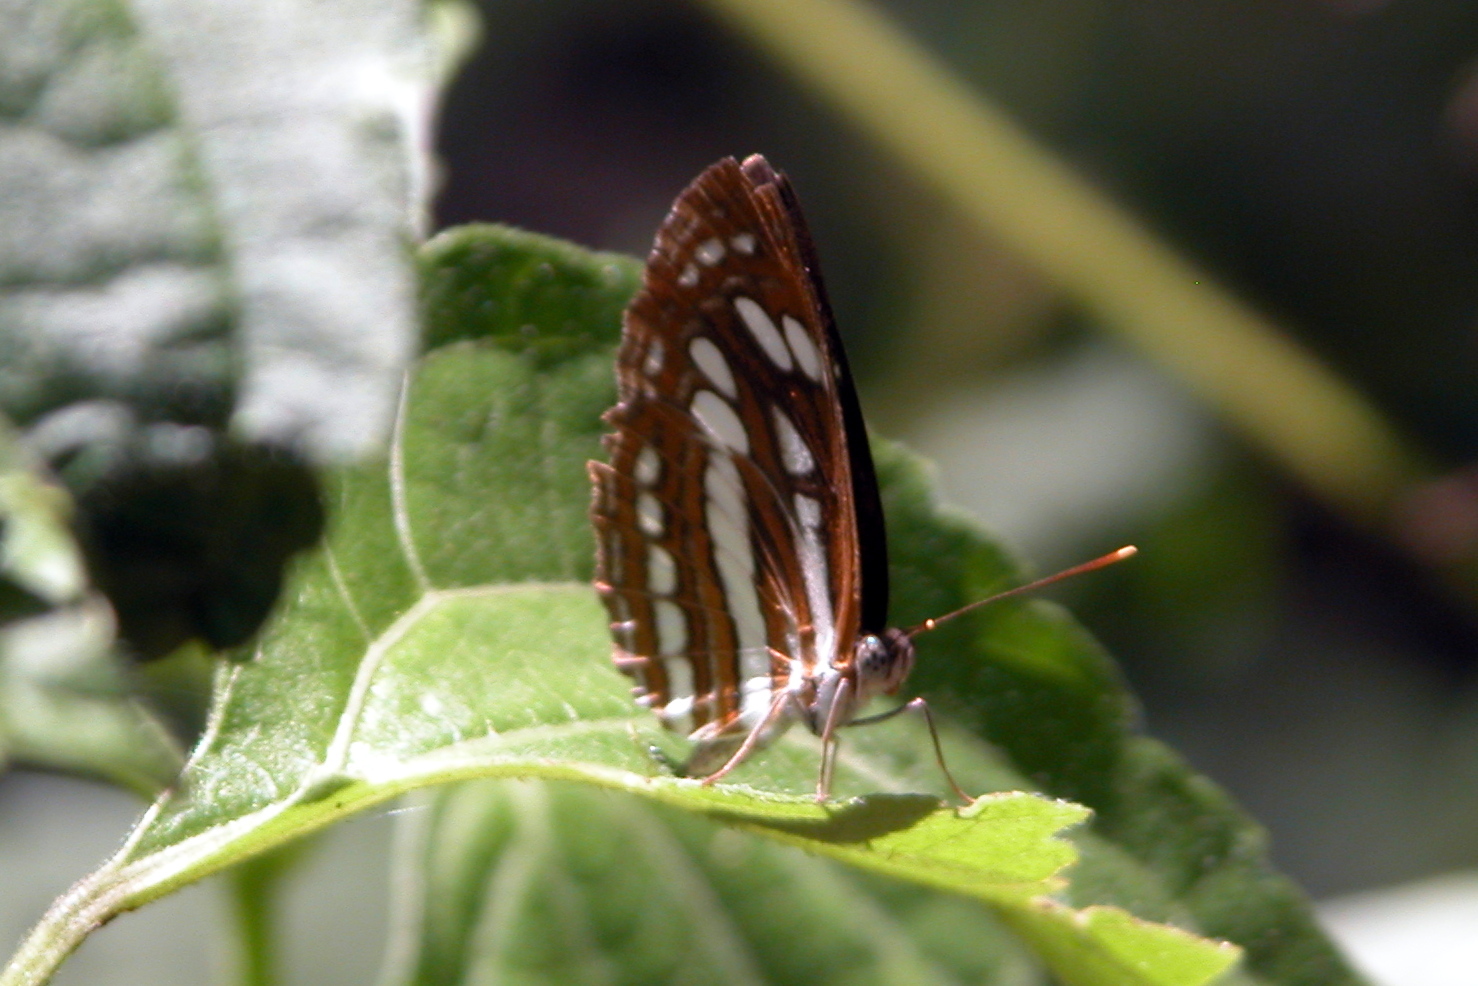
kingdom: Animalia
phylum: Arthropoda
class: Insecta
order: Lepidoptera
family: Nymphalidae
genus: Neptis
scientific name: Neptis hylas
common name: Common sailer
